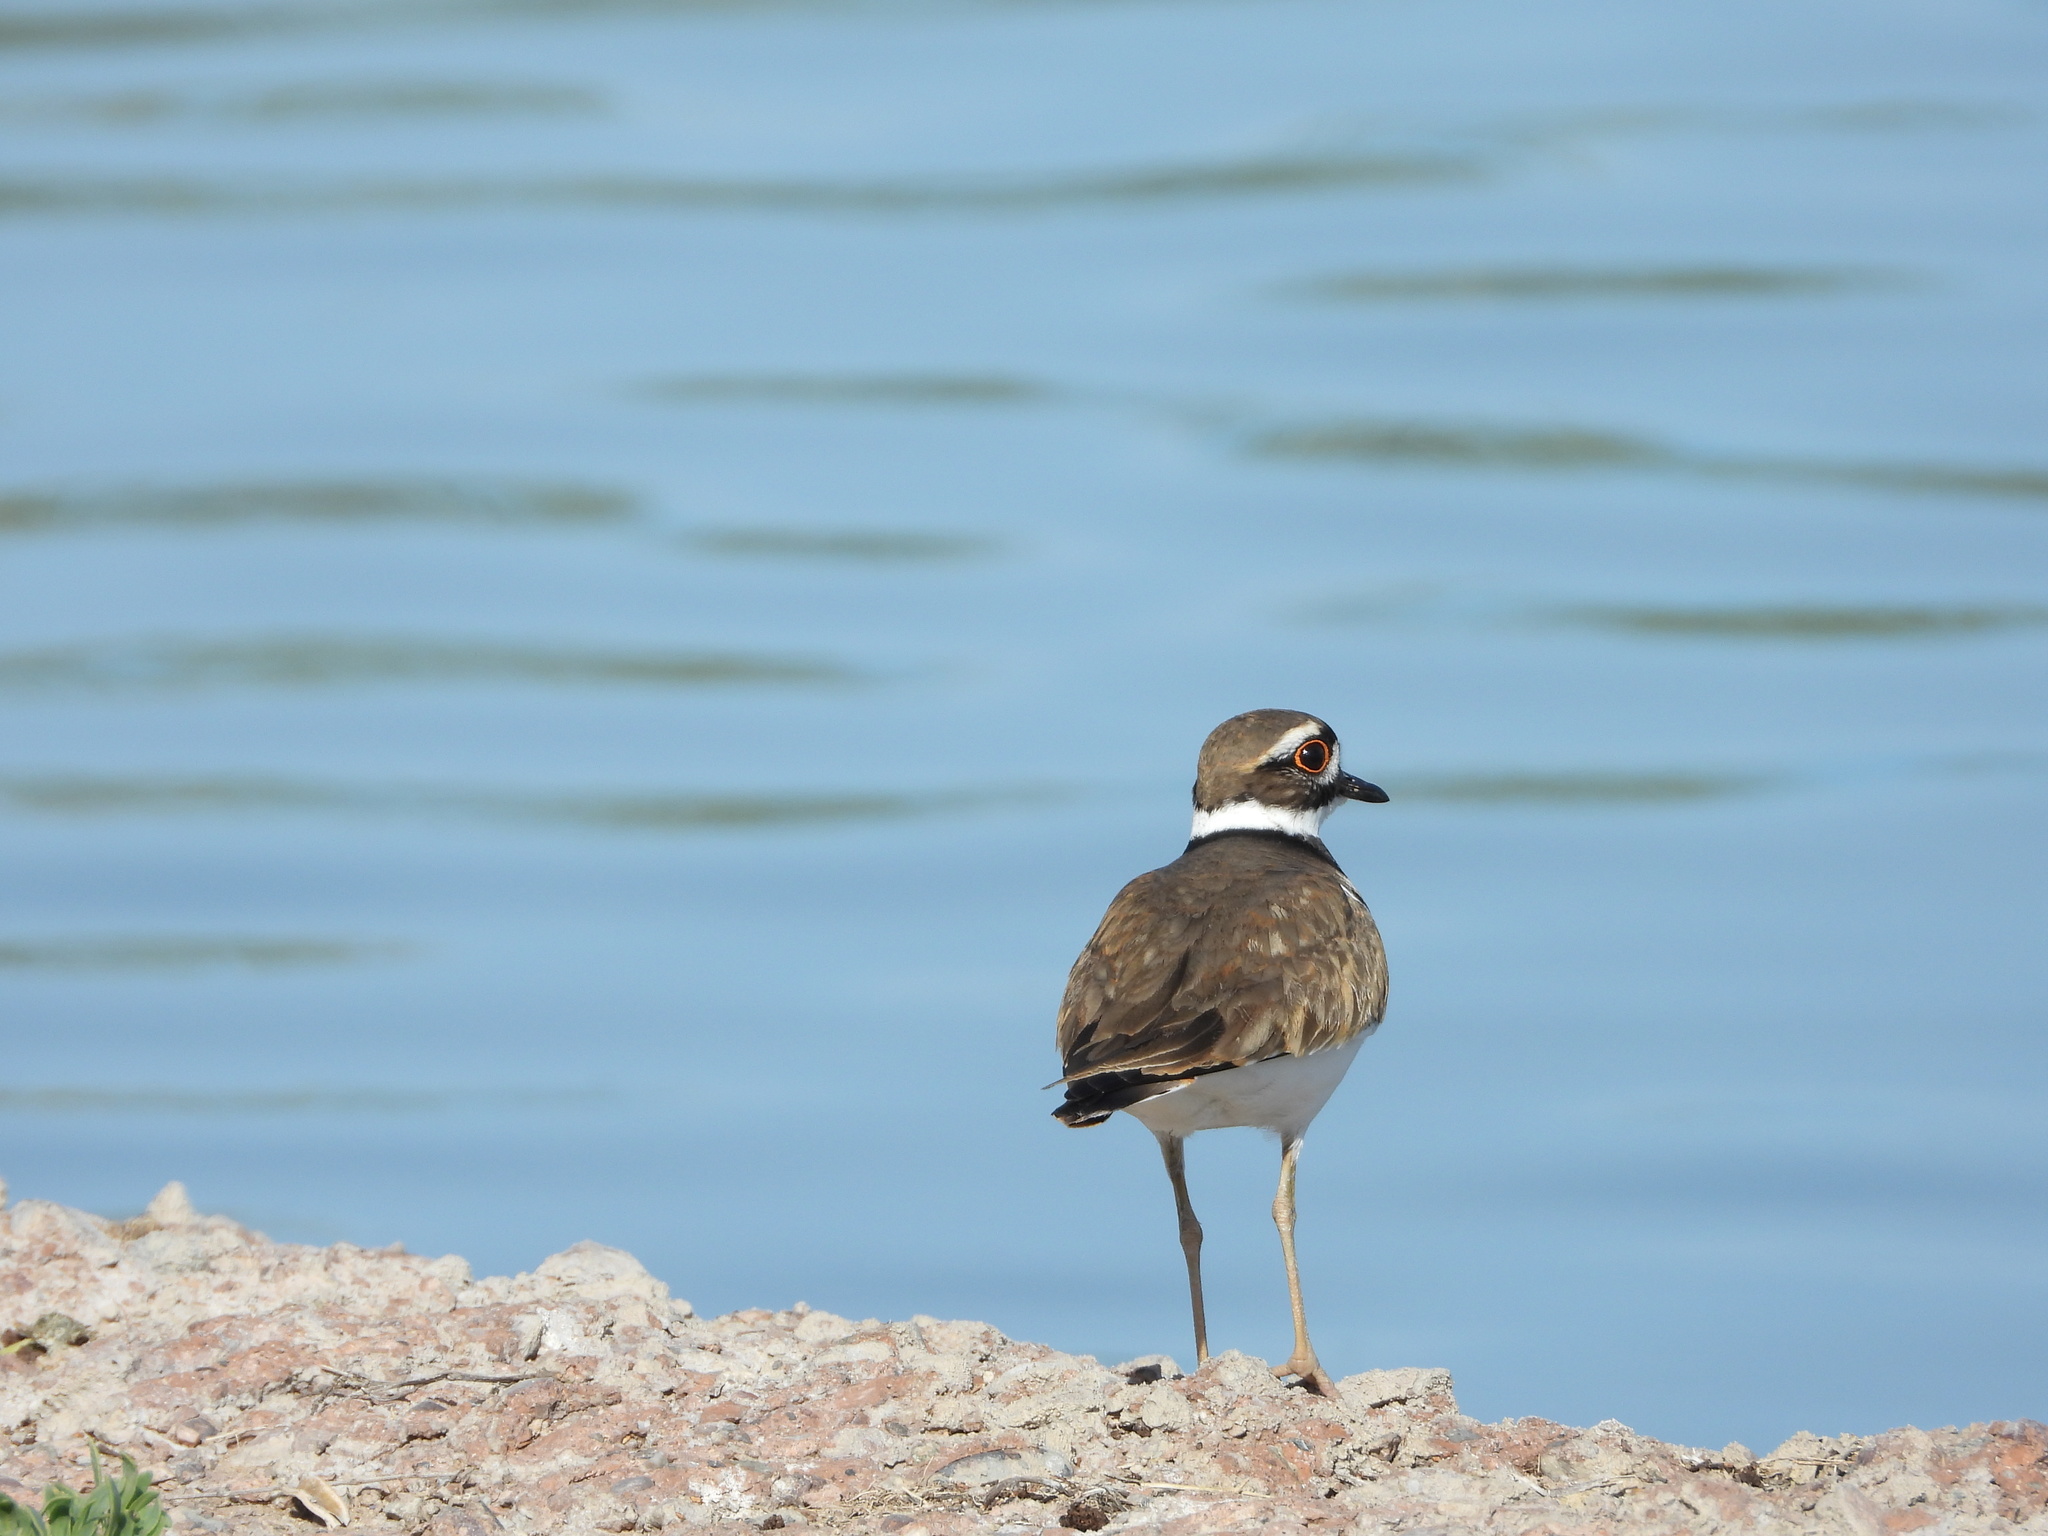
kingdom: Animalia
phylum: Chordata
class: Aves
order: Charadriiformes
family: Charadriidae
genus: Charadrius
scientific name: Charadrius vociferus
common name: Killdeer
